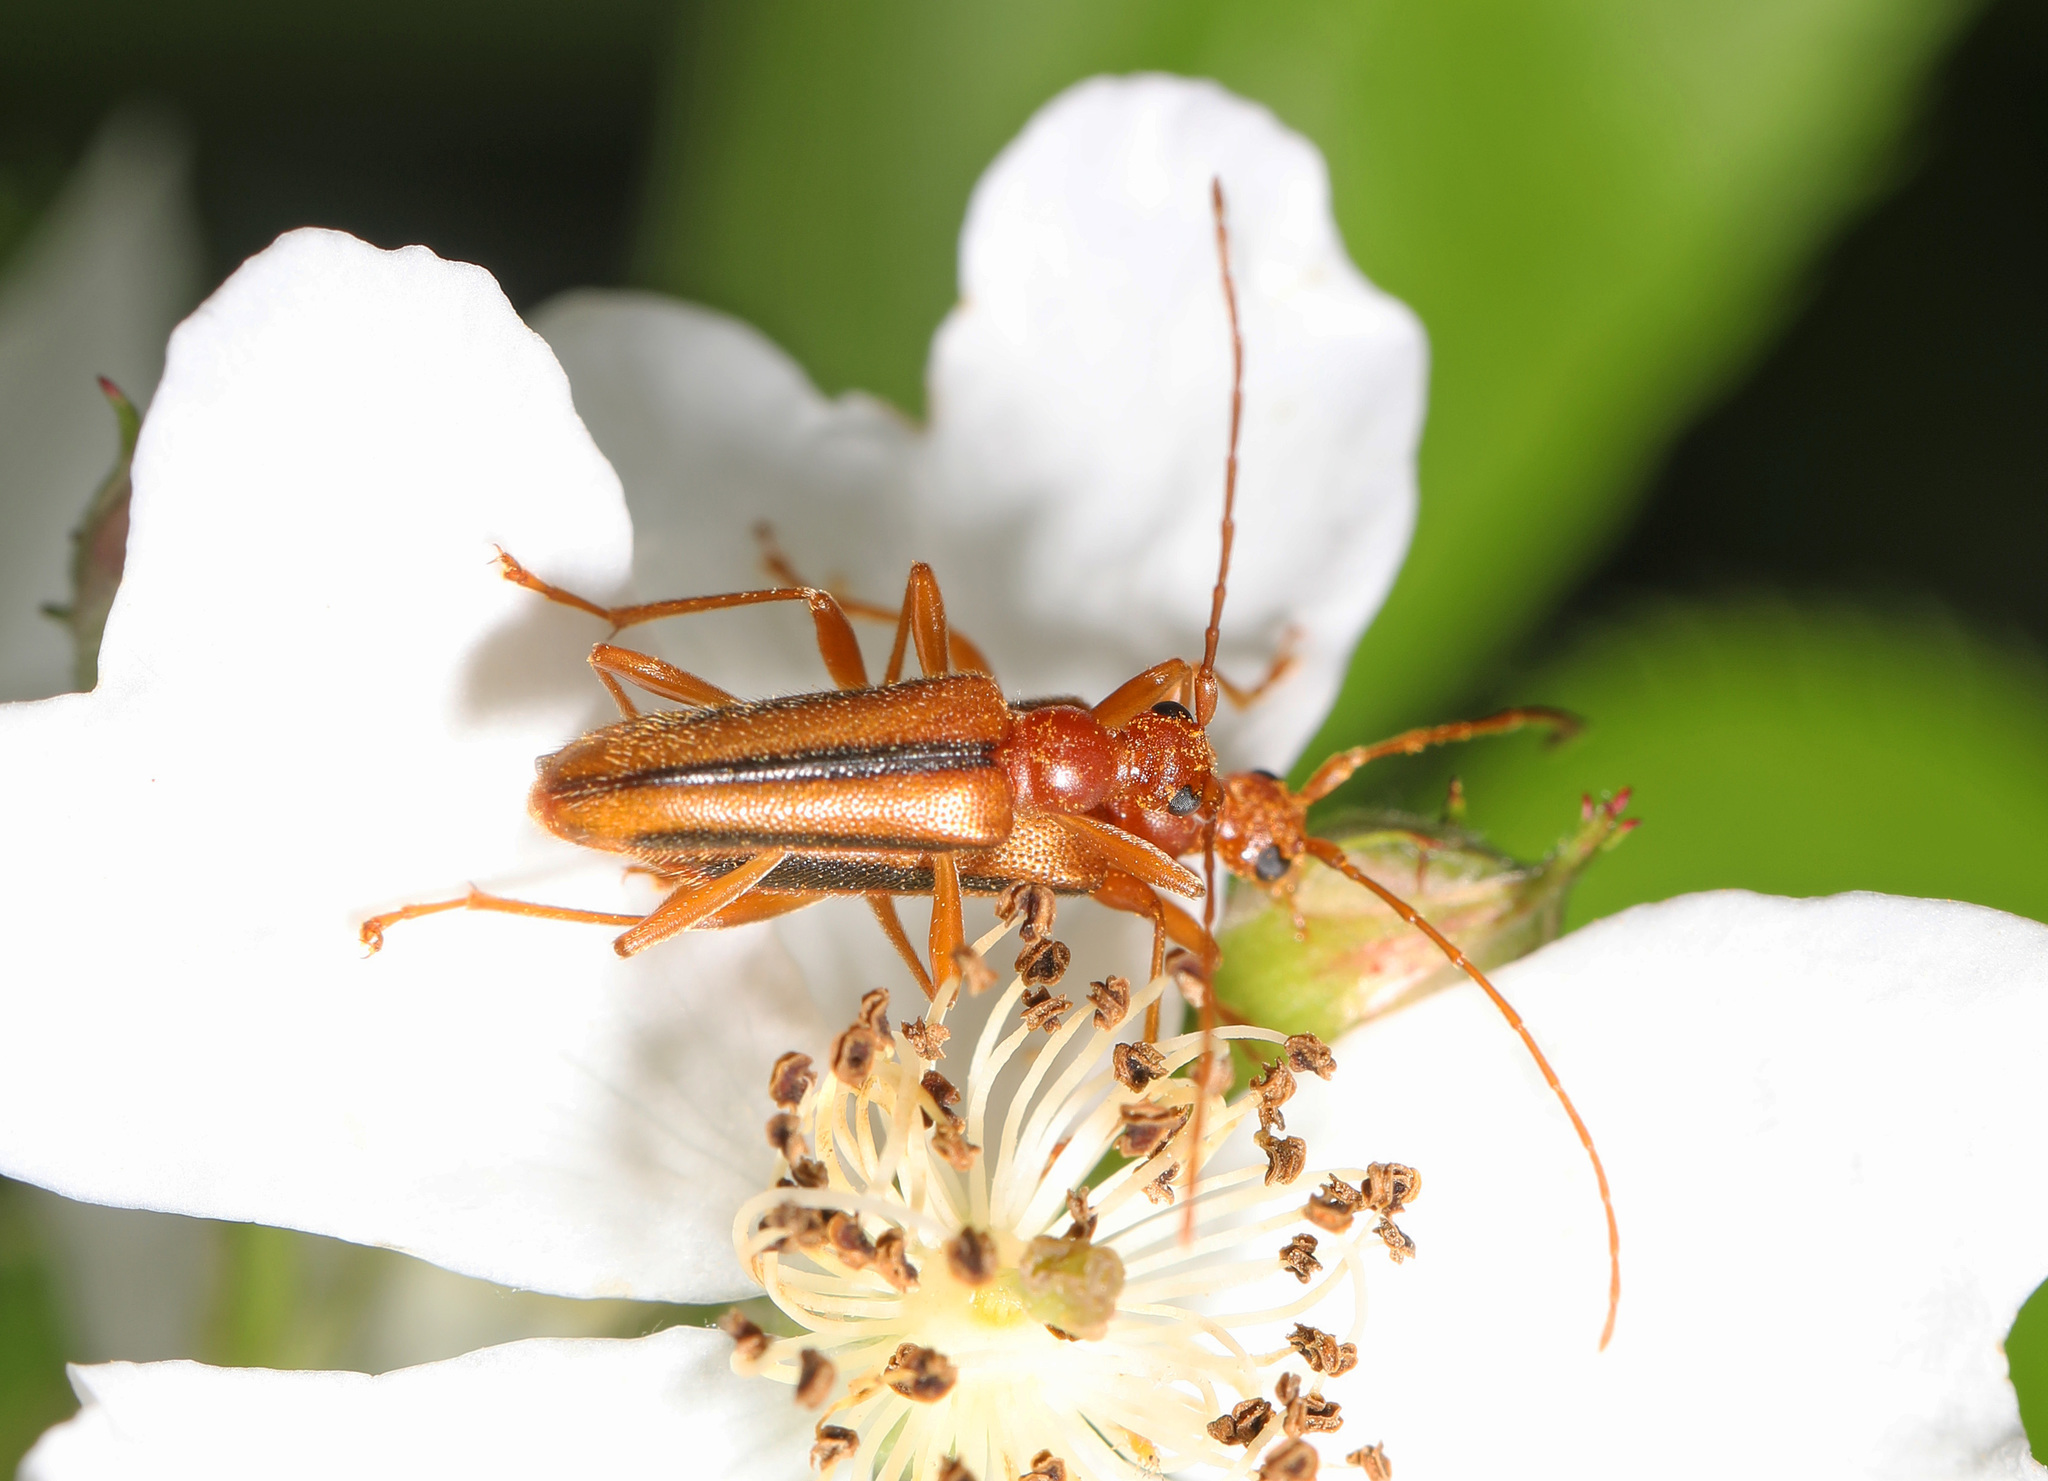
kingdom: Animalia
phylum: Arthropoda
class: Insecta
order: Coleoptera
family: Cerambycidae
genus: Pidonia
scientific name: Pidonia aurata
